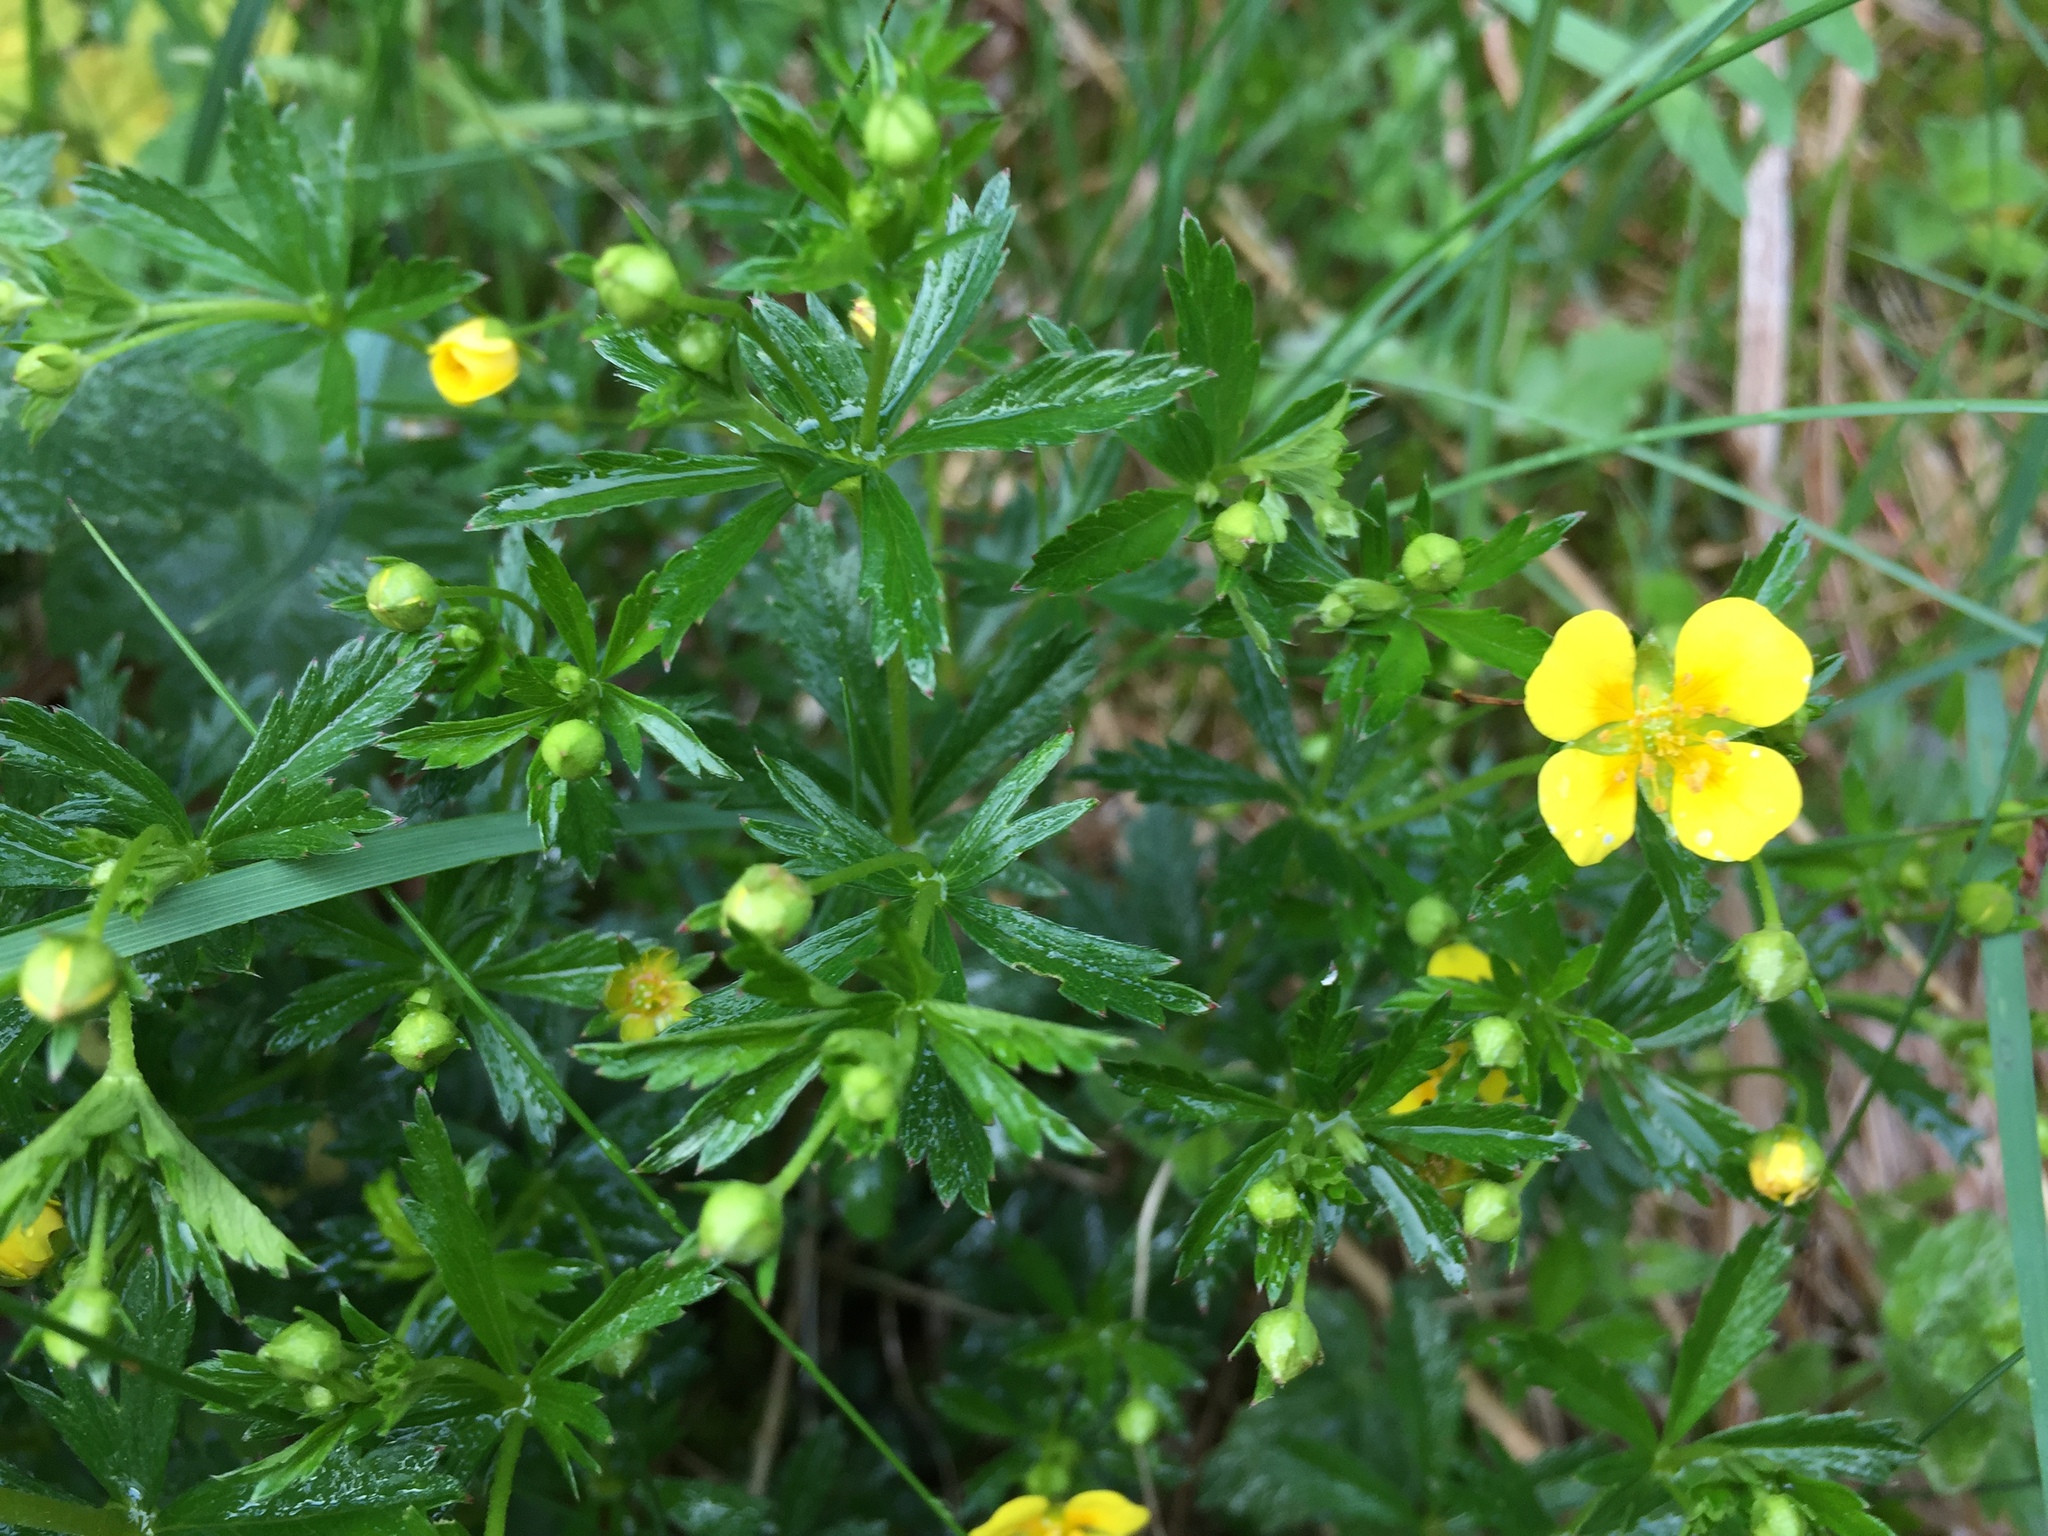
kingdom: Plantae
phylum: Tracheophyta
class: Magnoliopsida
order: Rosales
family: Rosaceae
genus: Potentilla
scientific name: Potentilla erecta
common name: Tormentil
